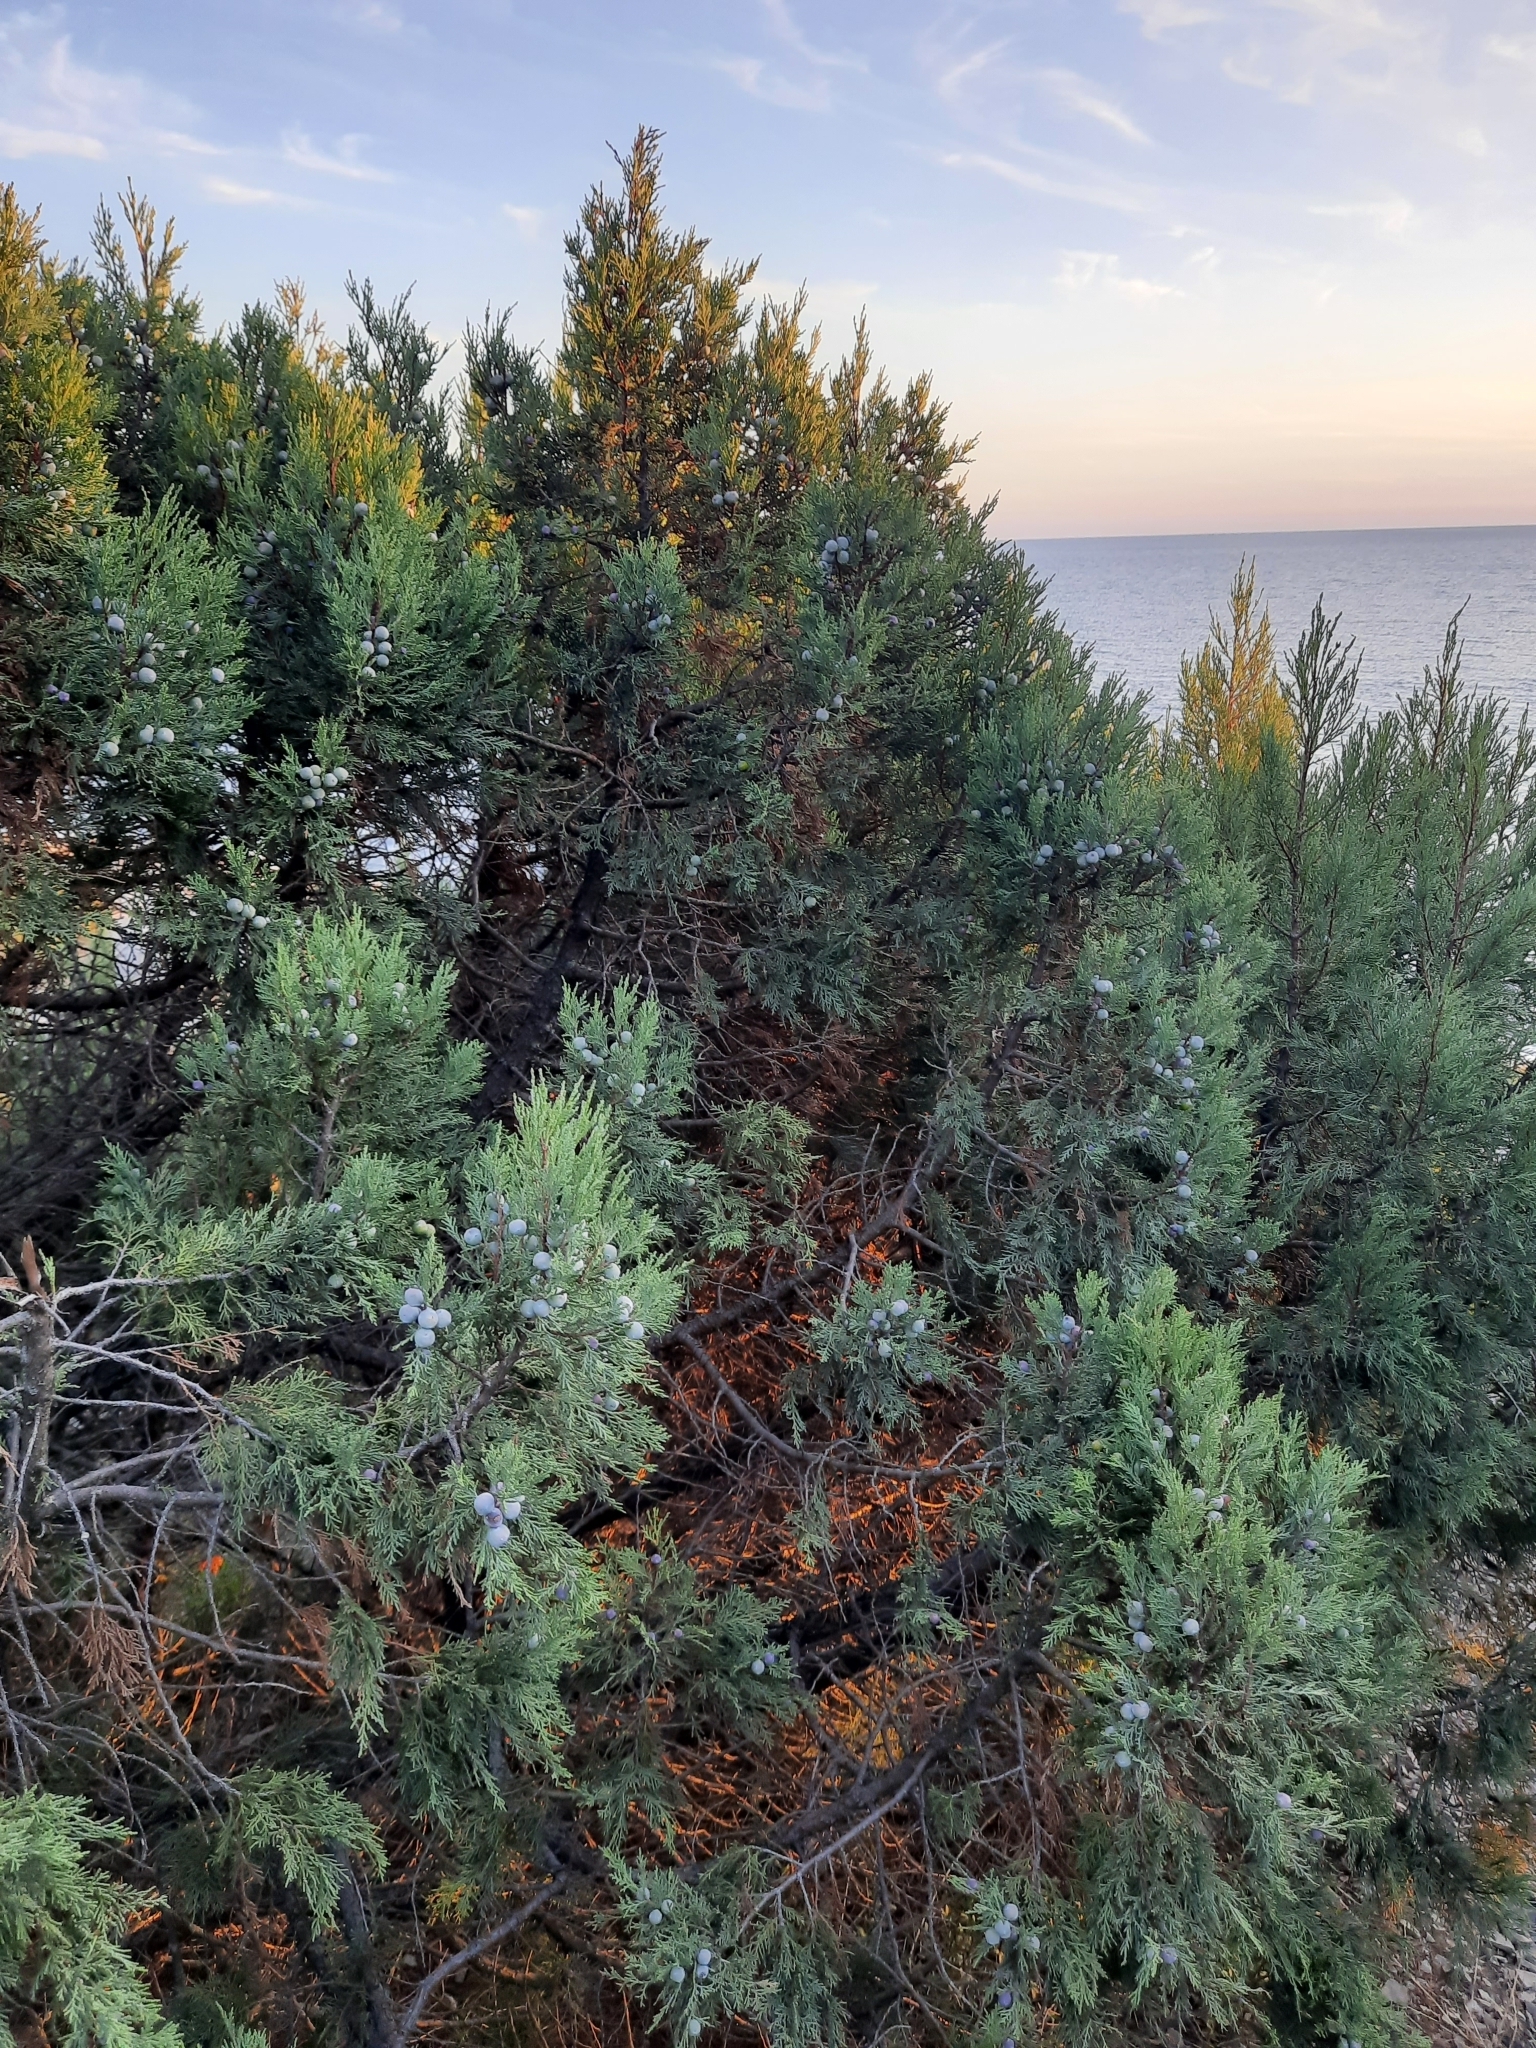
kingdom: Plantae
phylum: Tracheophyta
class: Pinopsida
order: Pinales
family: Cupressaceae
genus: Juniperus
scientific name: Juniperus excelsa
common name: Crimean juniper
